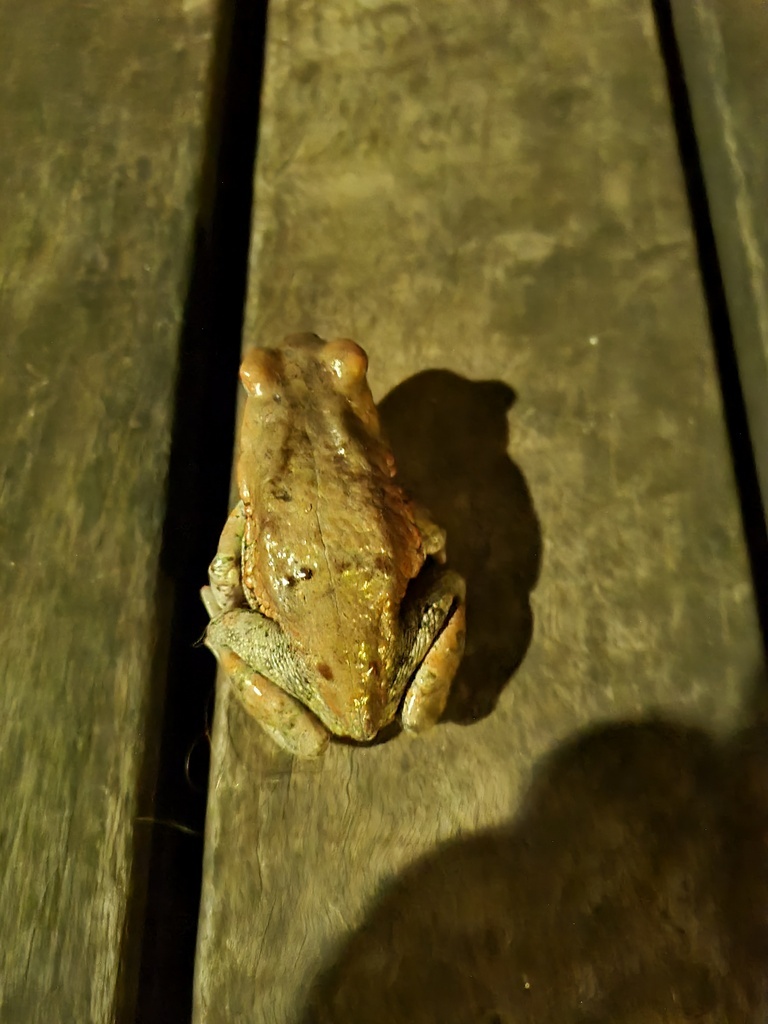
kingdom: Animalia
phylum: Chordata
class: Amphibia
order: Anura
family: Bufonidae
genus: Schismaderma
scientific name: Schismaderma carens
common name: African split-skin toad
